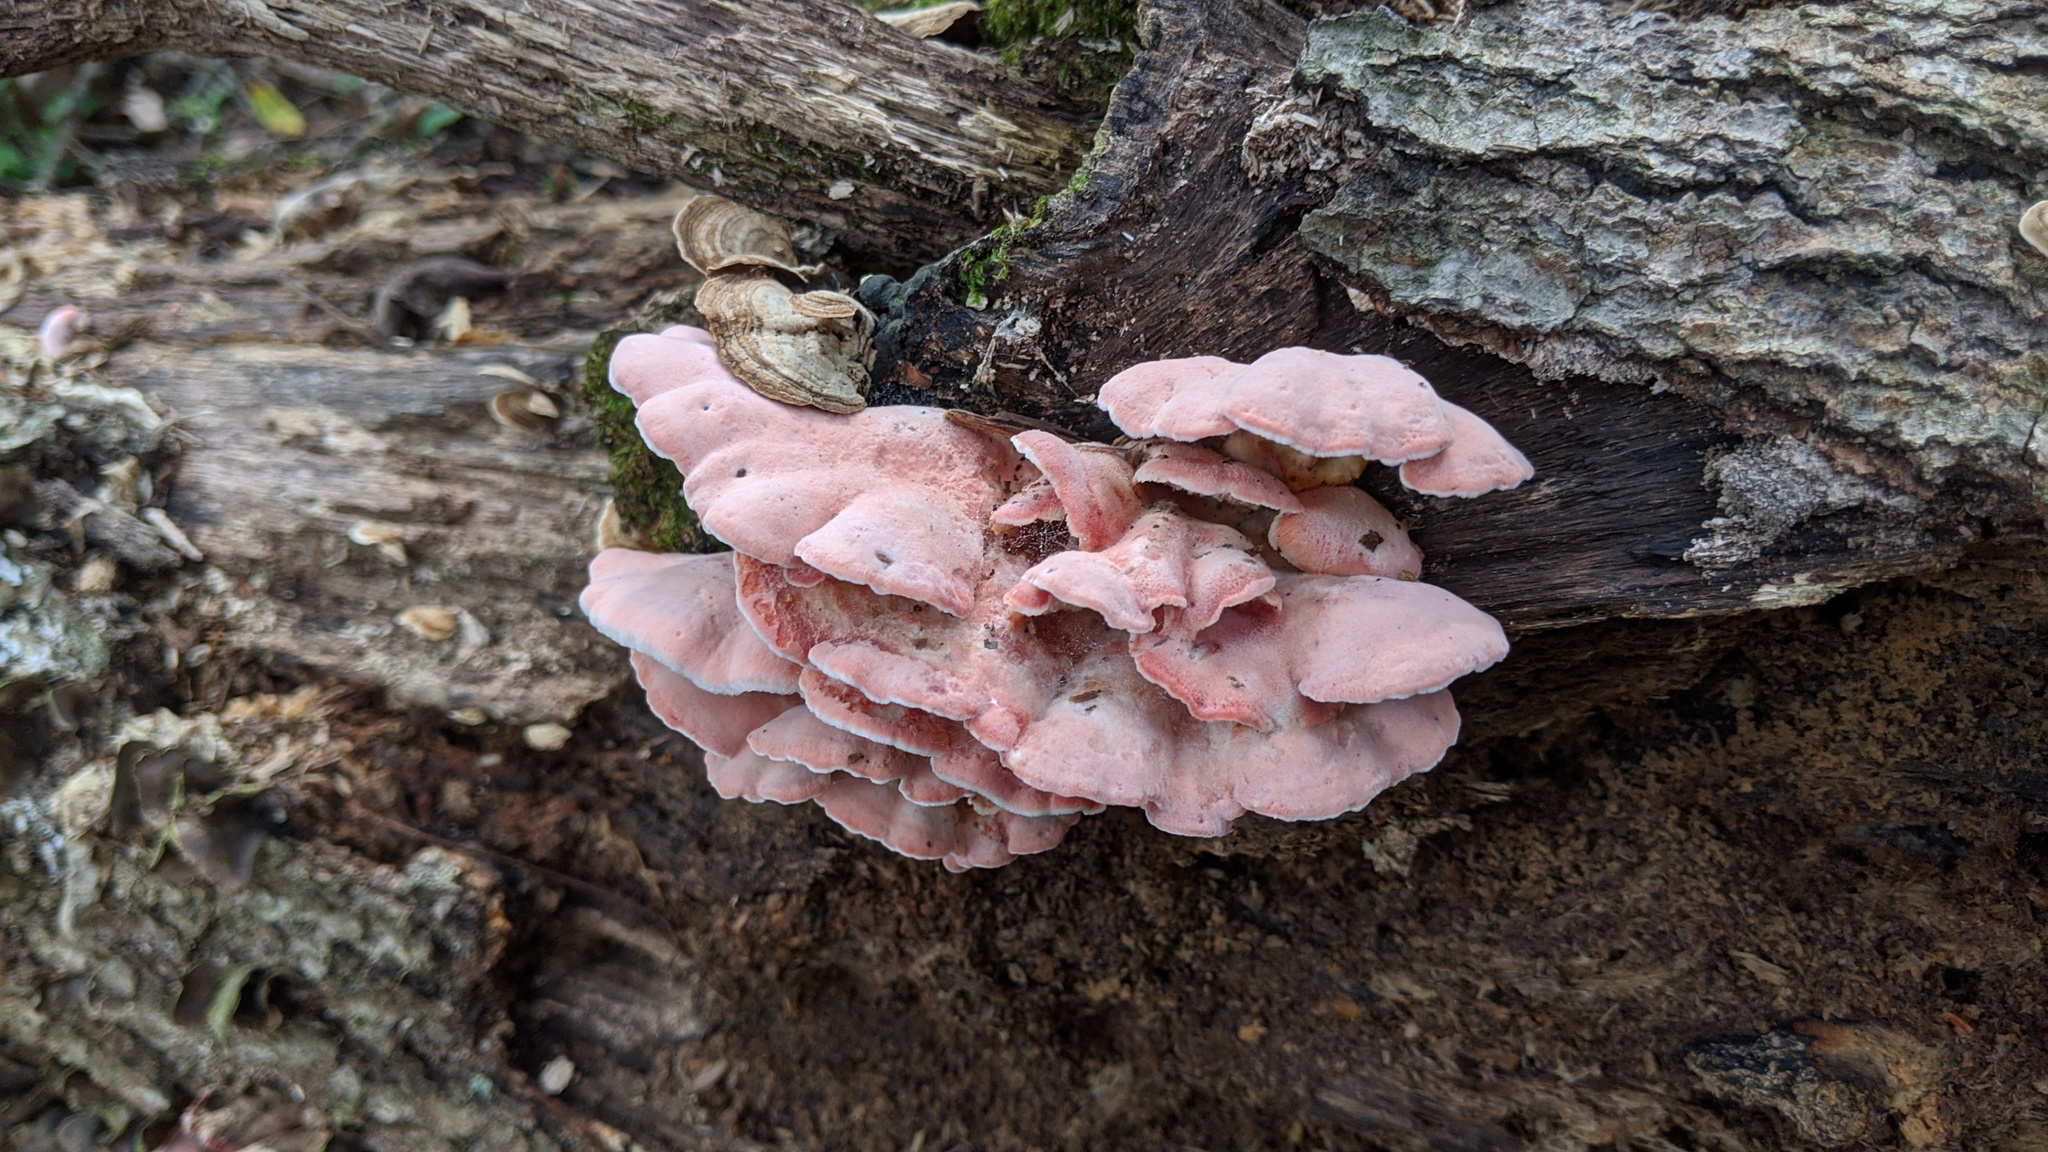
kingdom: Fungi
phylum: Basidiomycota
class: Agaricomycetes
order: Polyporales
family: Irpicaceae
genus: Byssomerulius
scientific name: Byssomerulius incarnatus
